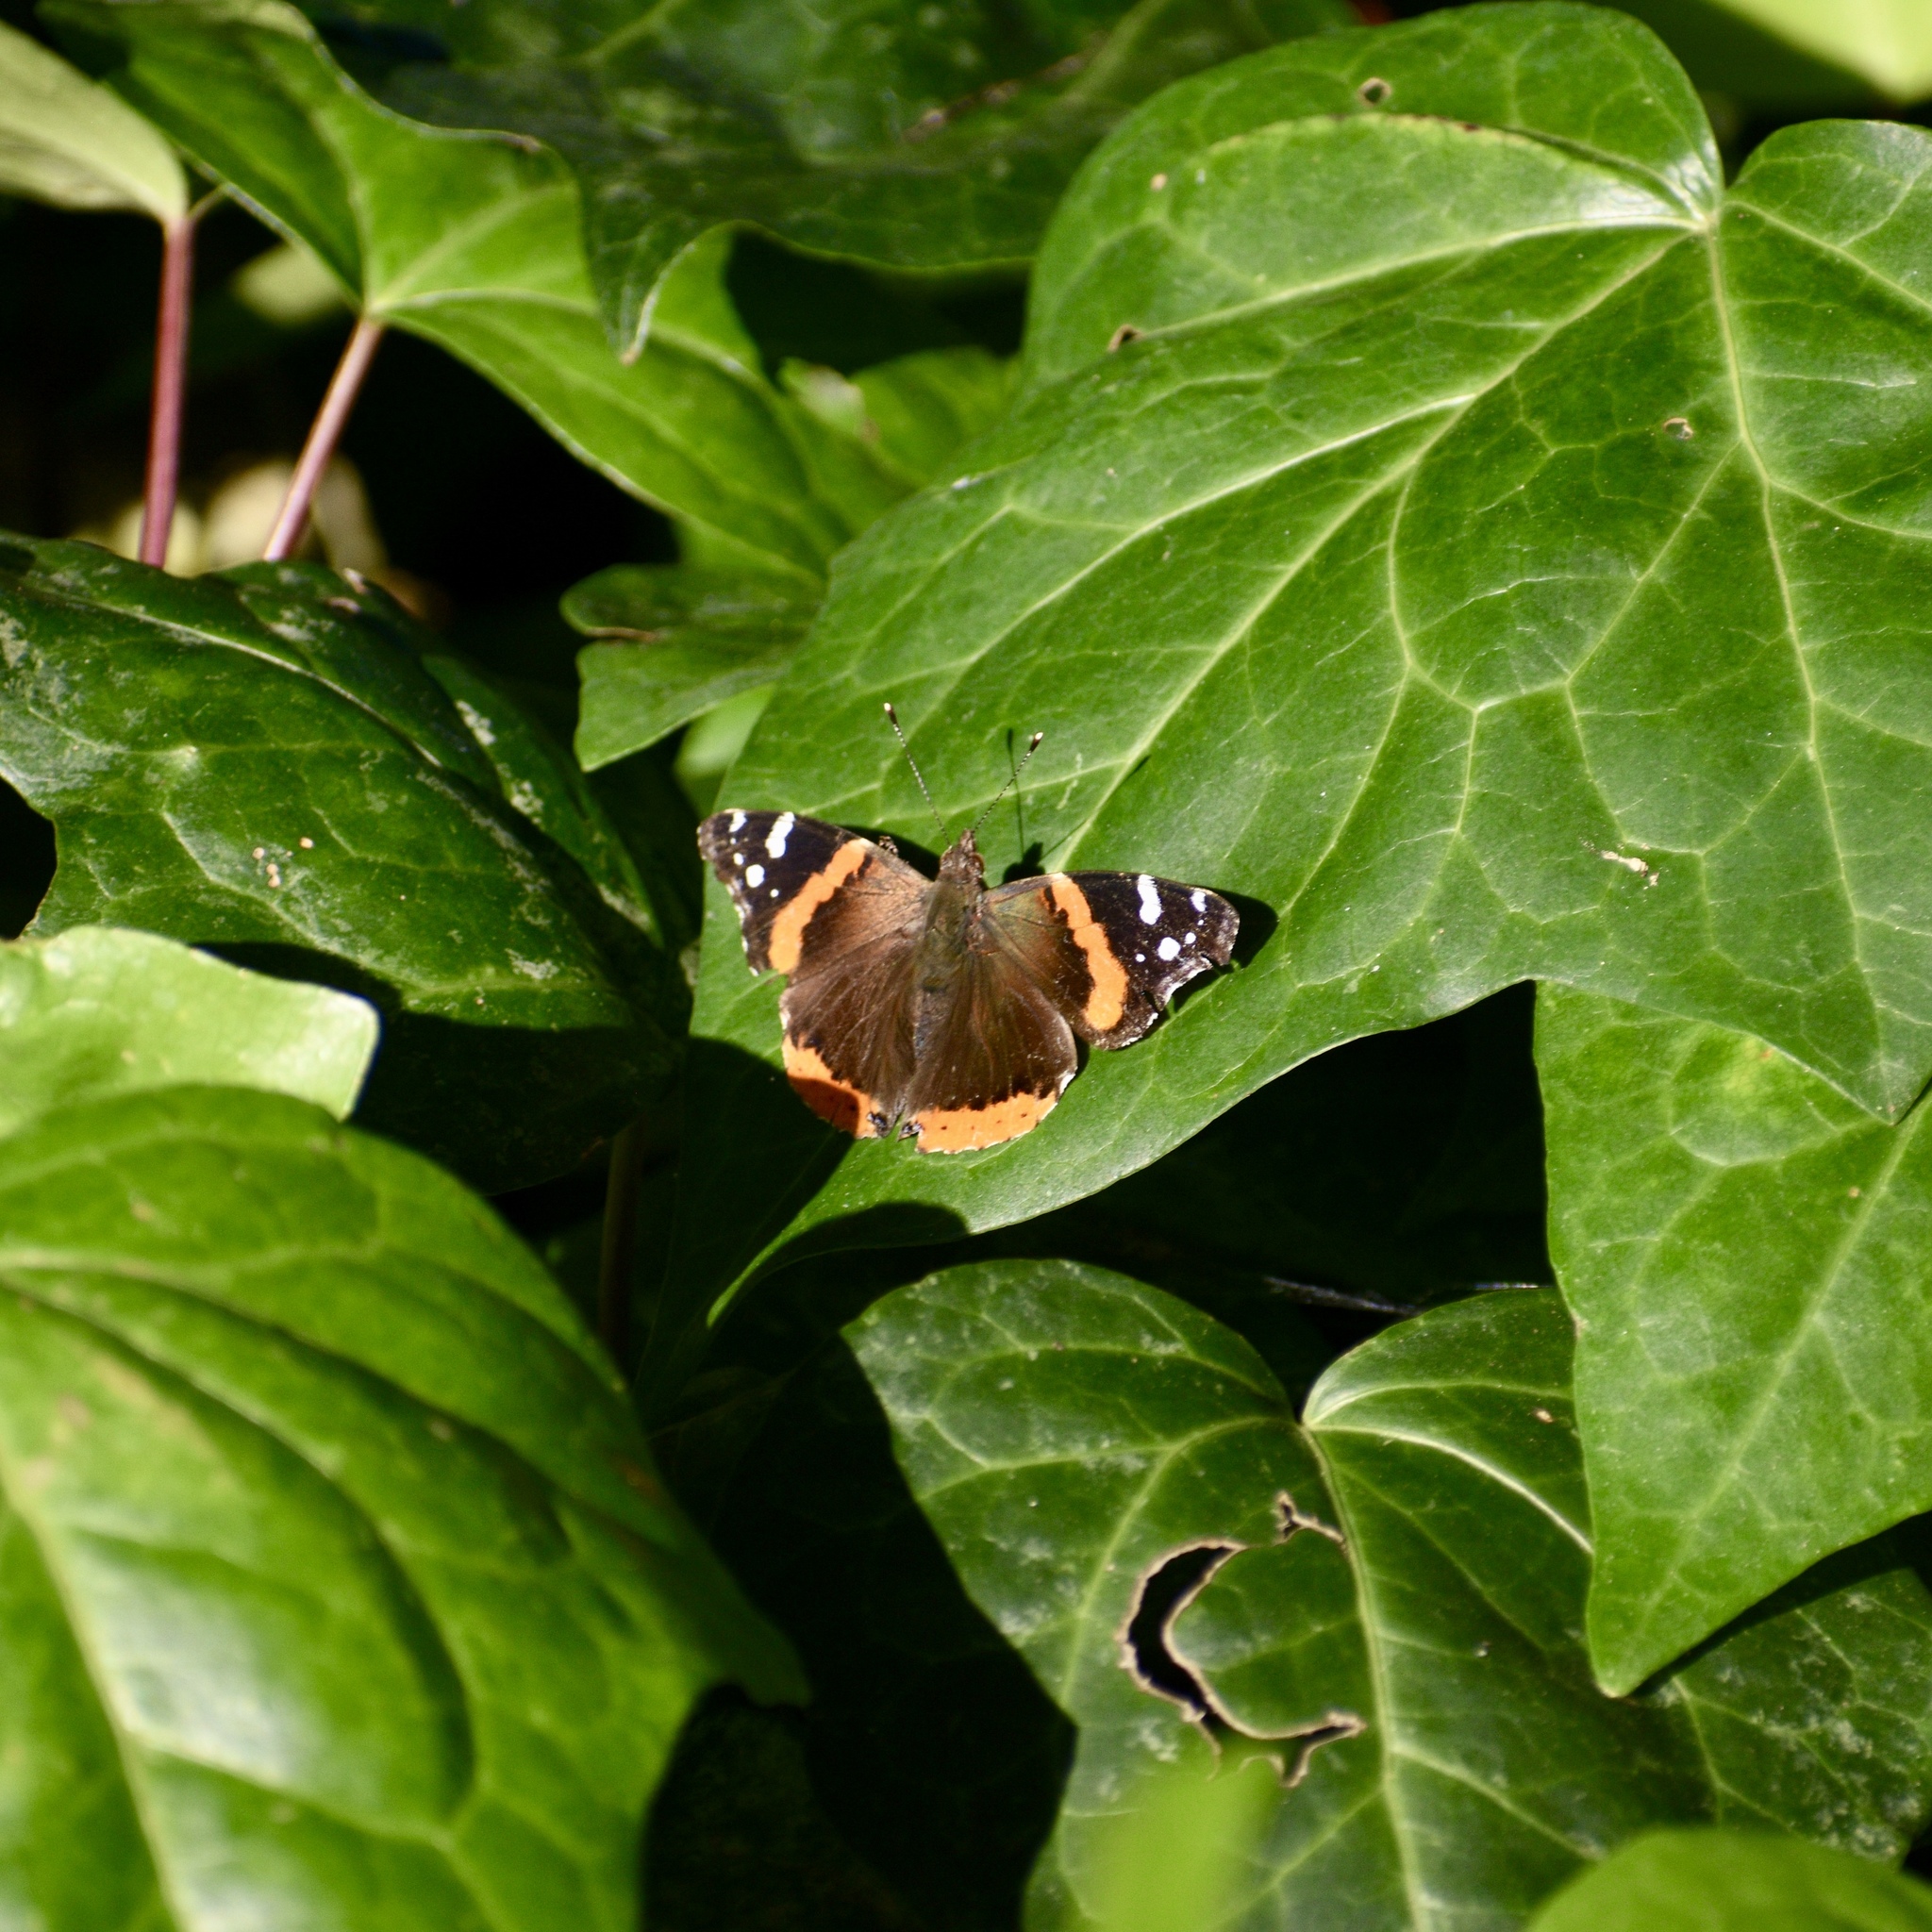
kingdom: Animalia
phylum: Arthropoda
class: Insecta
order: Lepidoptera
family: Nymphalidae
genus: Vanessa
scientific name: Vanessa atalanta
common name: Red admiral
